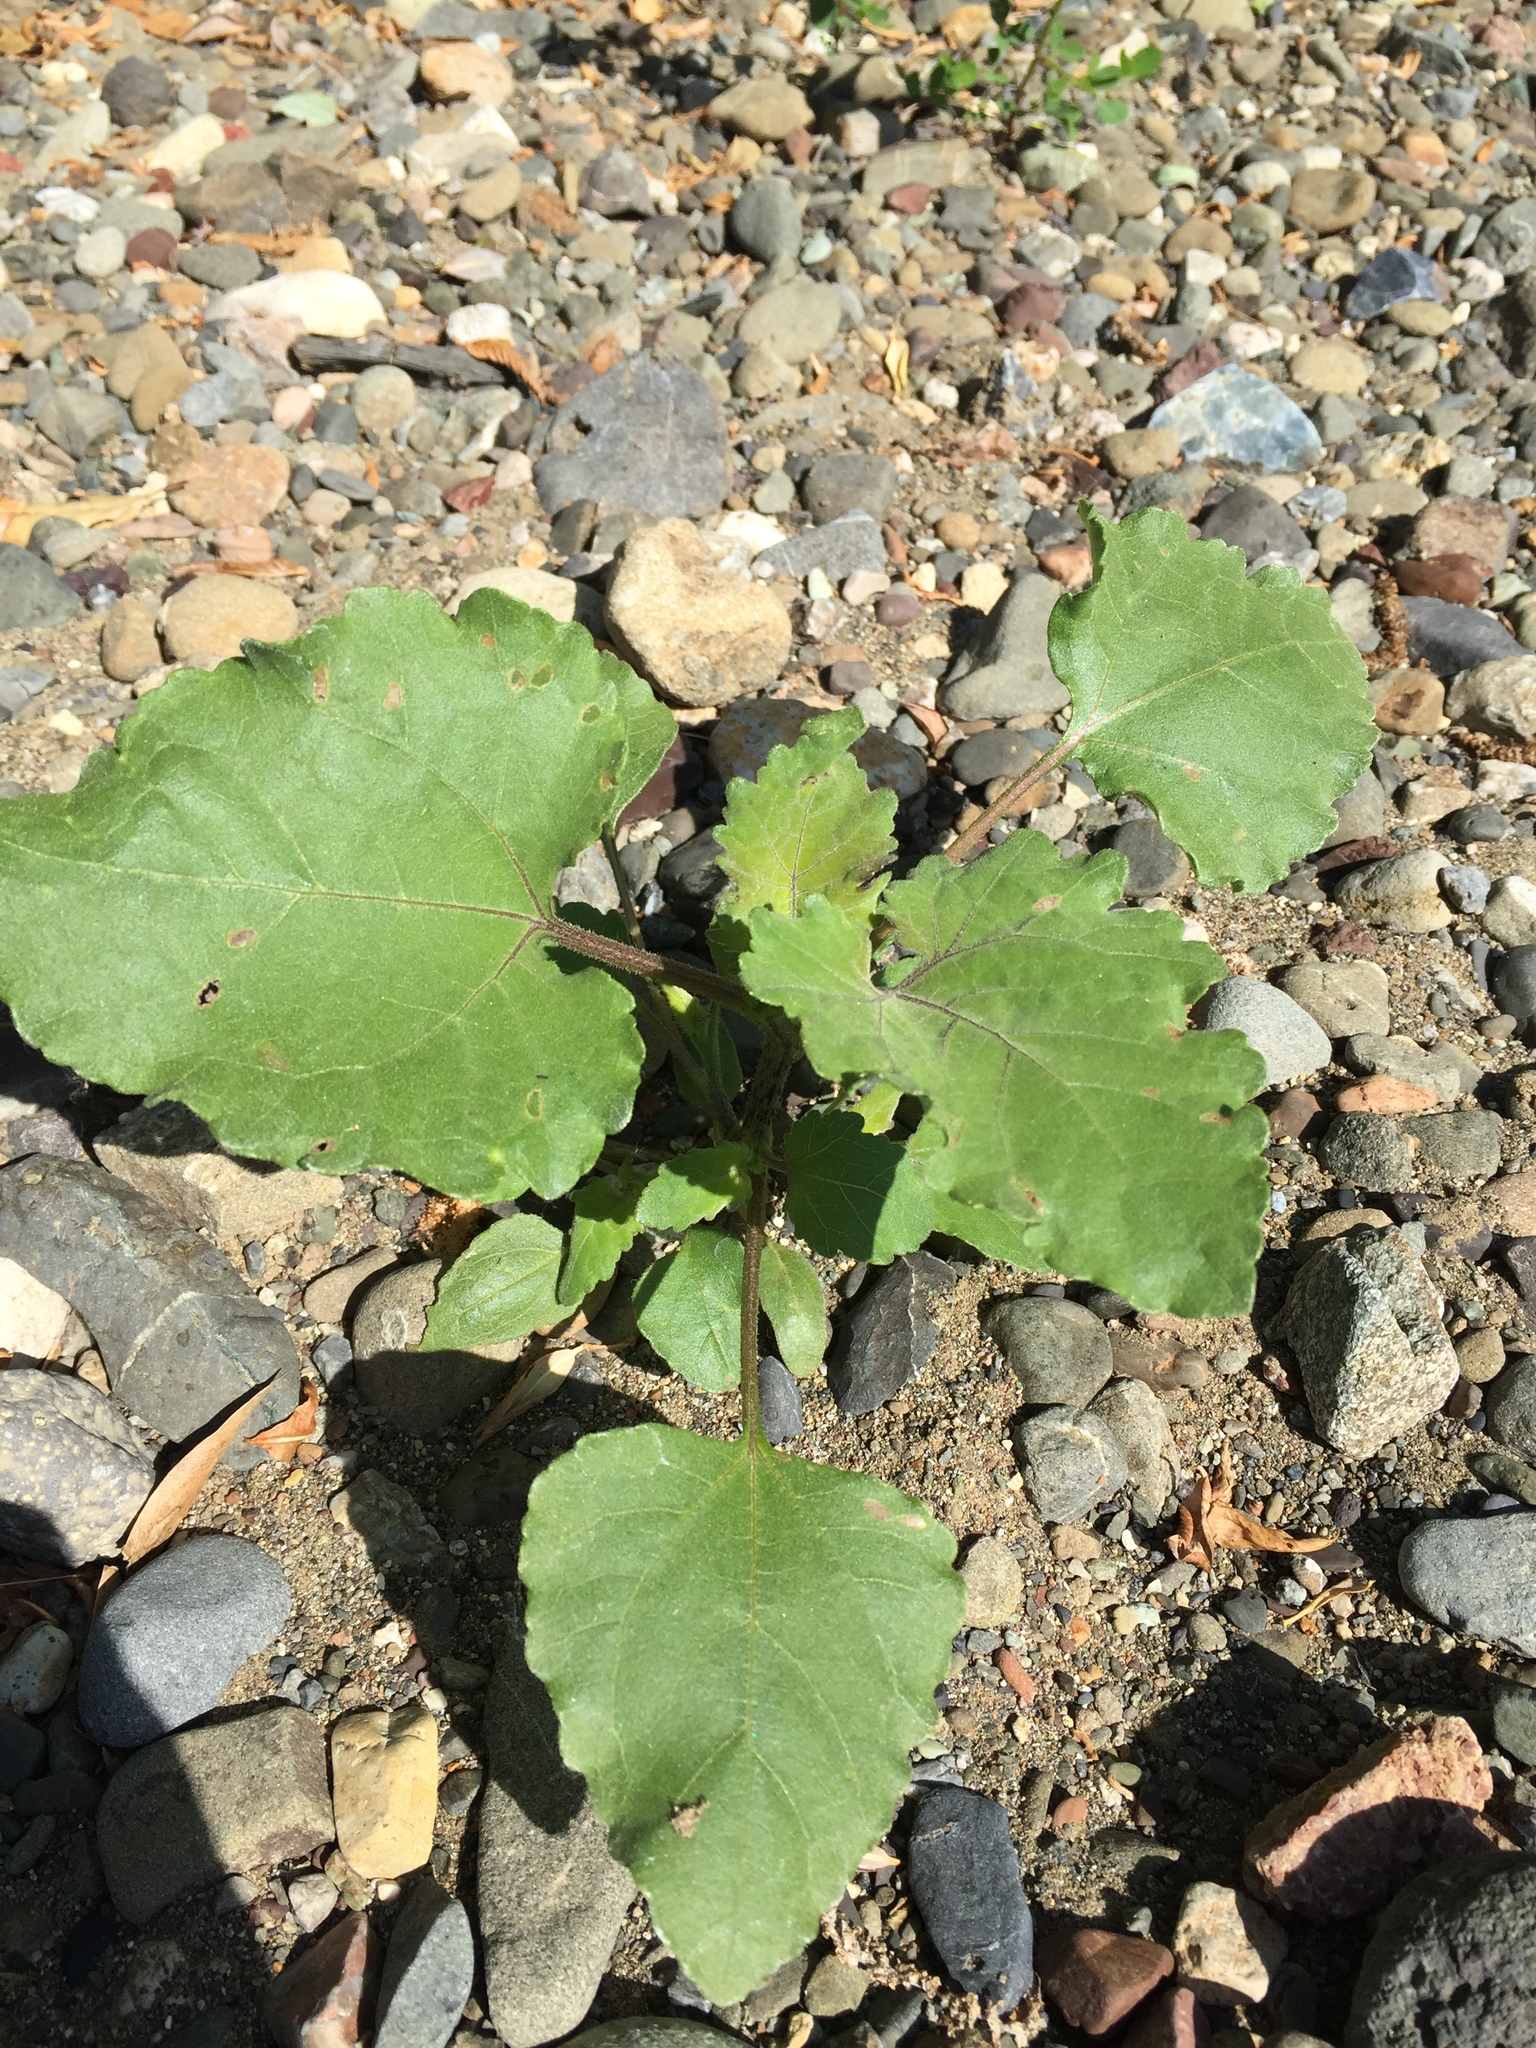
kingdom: Plantae
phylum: Tracheophyta
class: Magnoliopsida
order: Asterales
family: Asteraceae
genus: Xanthium
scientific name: Xanthium strumarium
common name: Rough cocklebur
